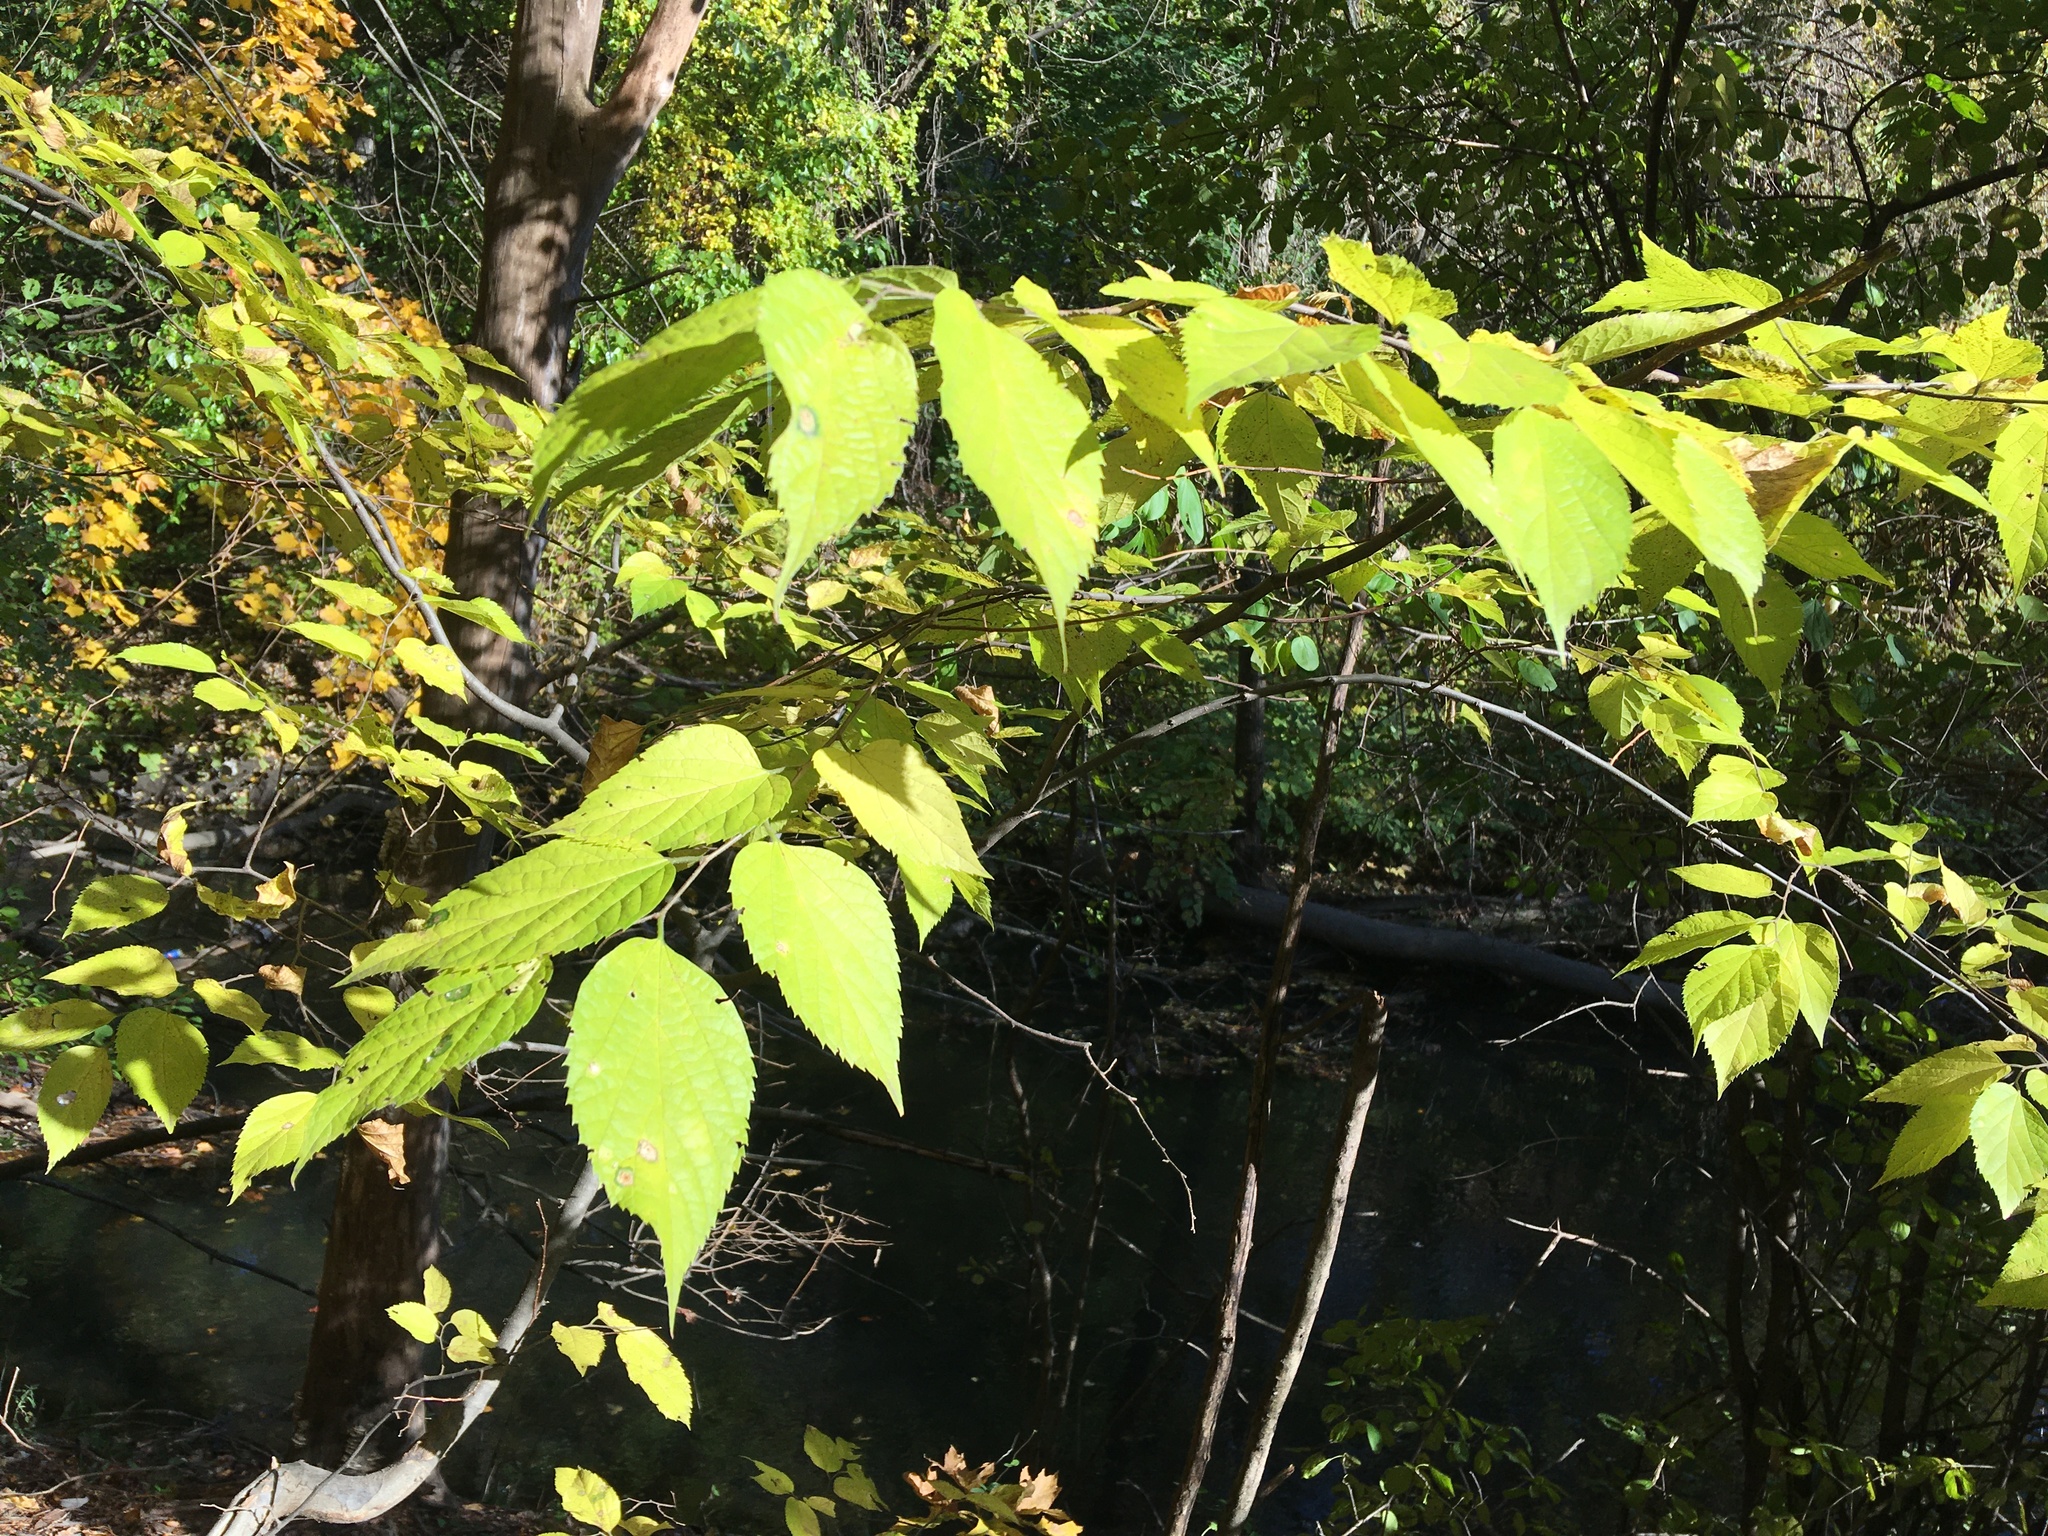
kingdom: Plantae
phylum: Tracheophyta
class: Magnoliopsida
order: Rosales
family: Cannabaceae
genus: Celtis
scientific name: Celtis occidentalis
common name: Common hackberry
